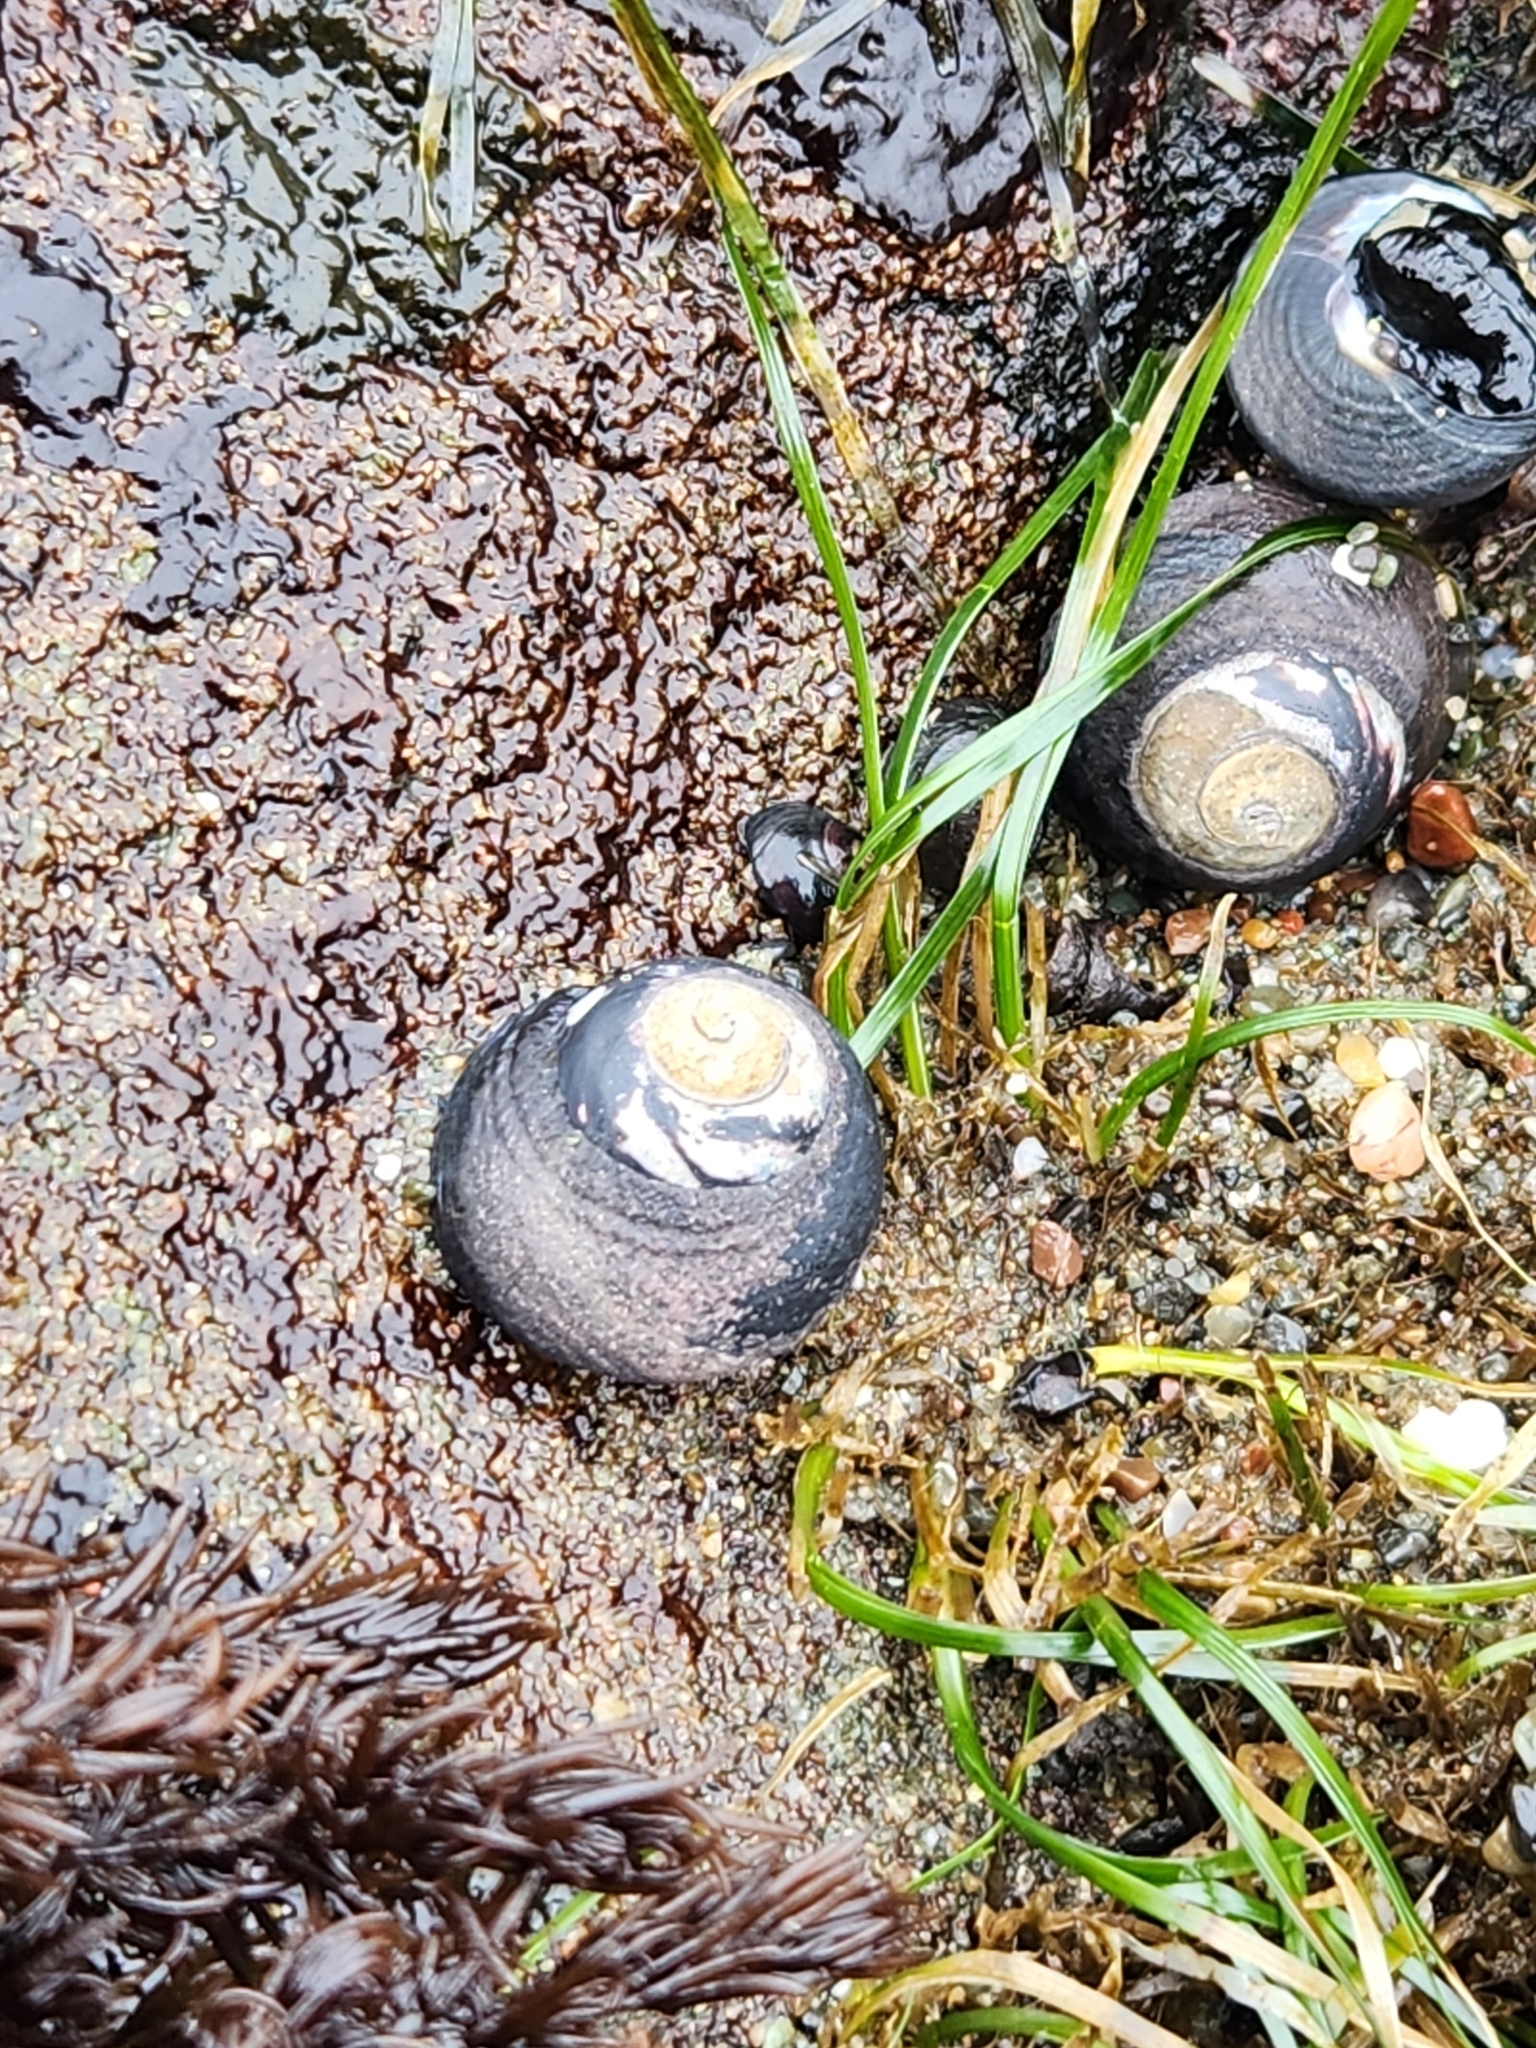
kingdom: Animalia
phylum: Mollusca
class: Gastropoda
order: Trochida
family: Tegulidae
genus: Tegula
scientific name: Tegula funebralis
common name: Black tegula
